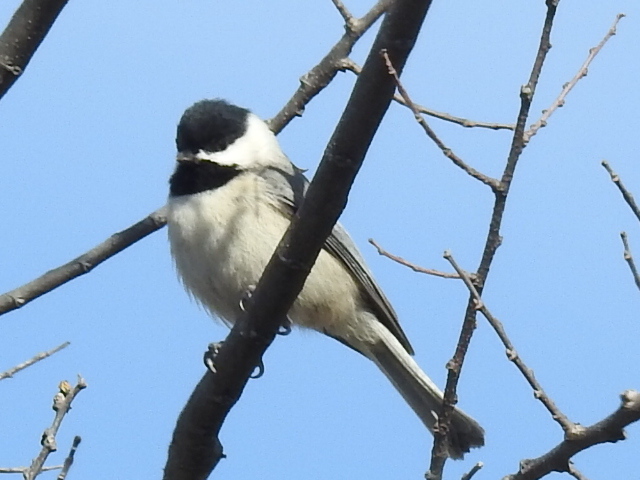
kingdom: Animalia
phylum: Chordata
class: Aves
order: Passeriformes
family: Paridae
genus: Poecile
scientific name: Poecile carolinensis
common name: Carolina chickadee
